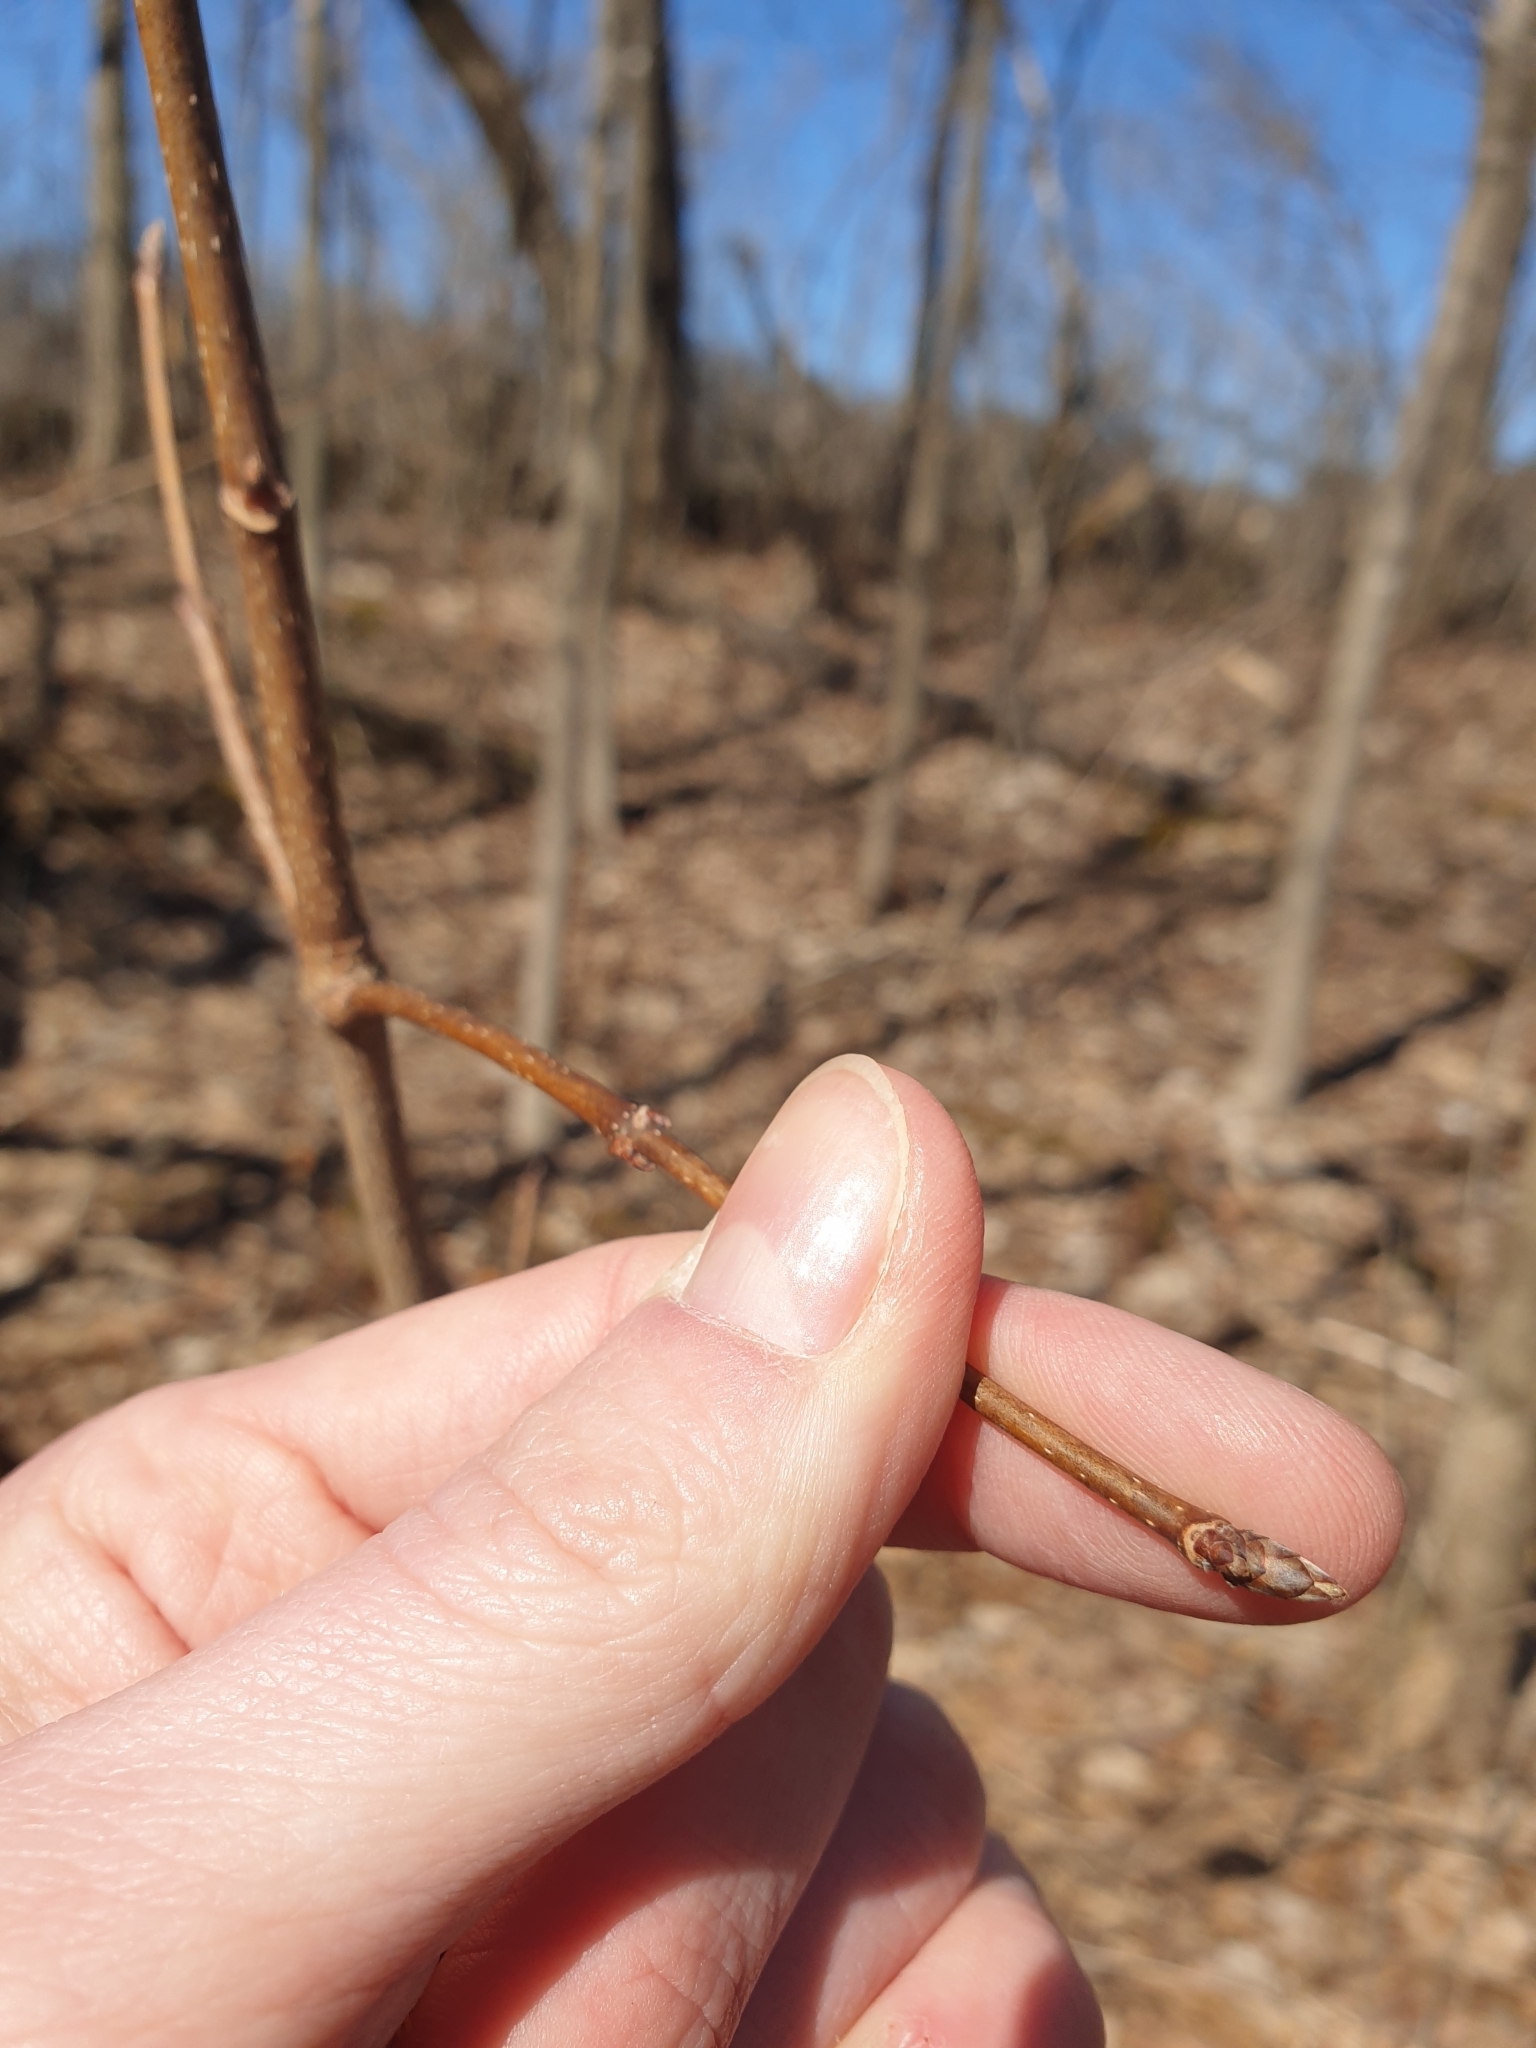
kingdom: Plantae
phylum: Tracheophyta
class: Magnoliopsida
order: Sapindales
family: Sapindaceae
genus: Acer
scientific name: Acer saccharum
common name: Sugar maple
